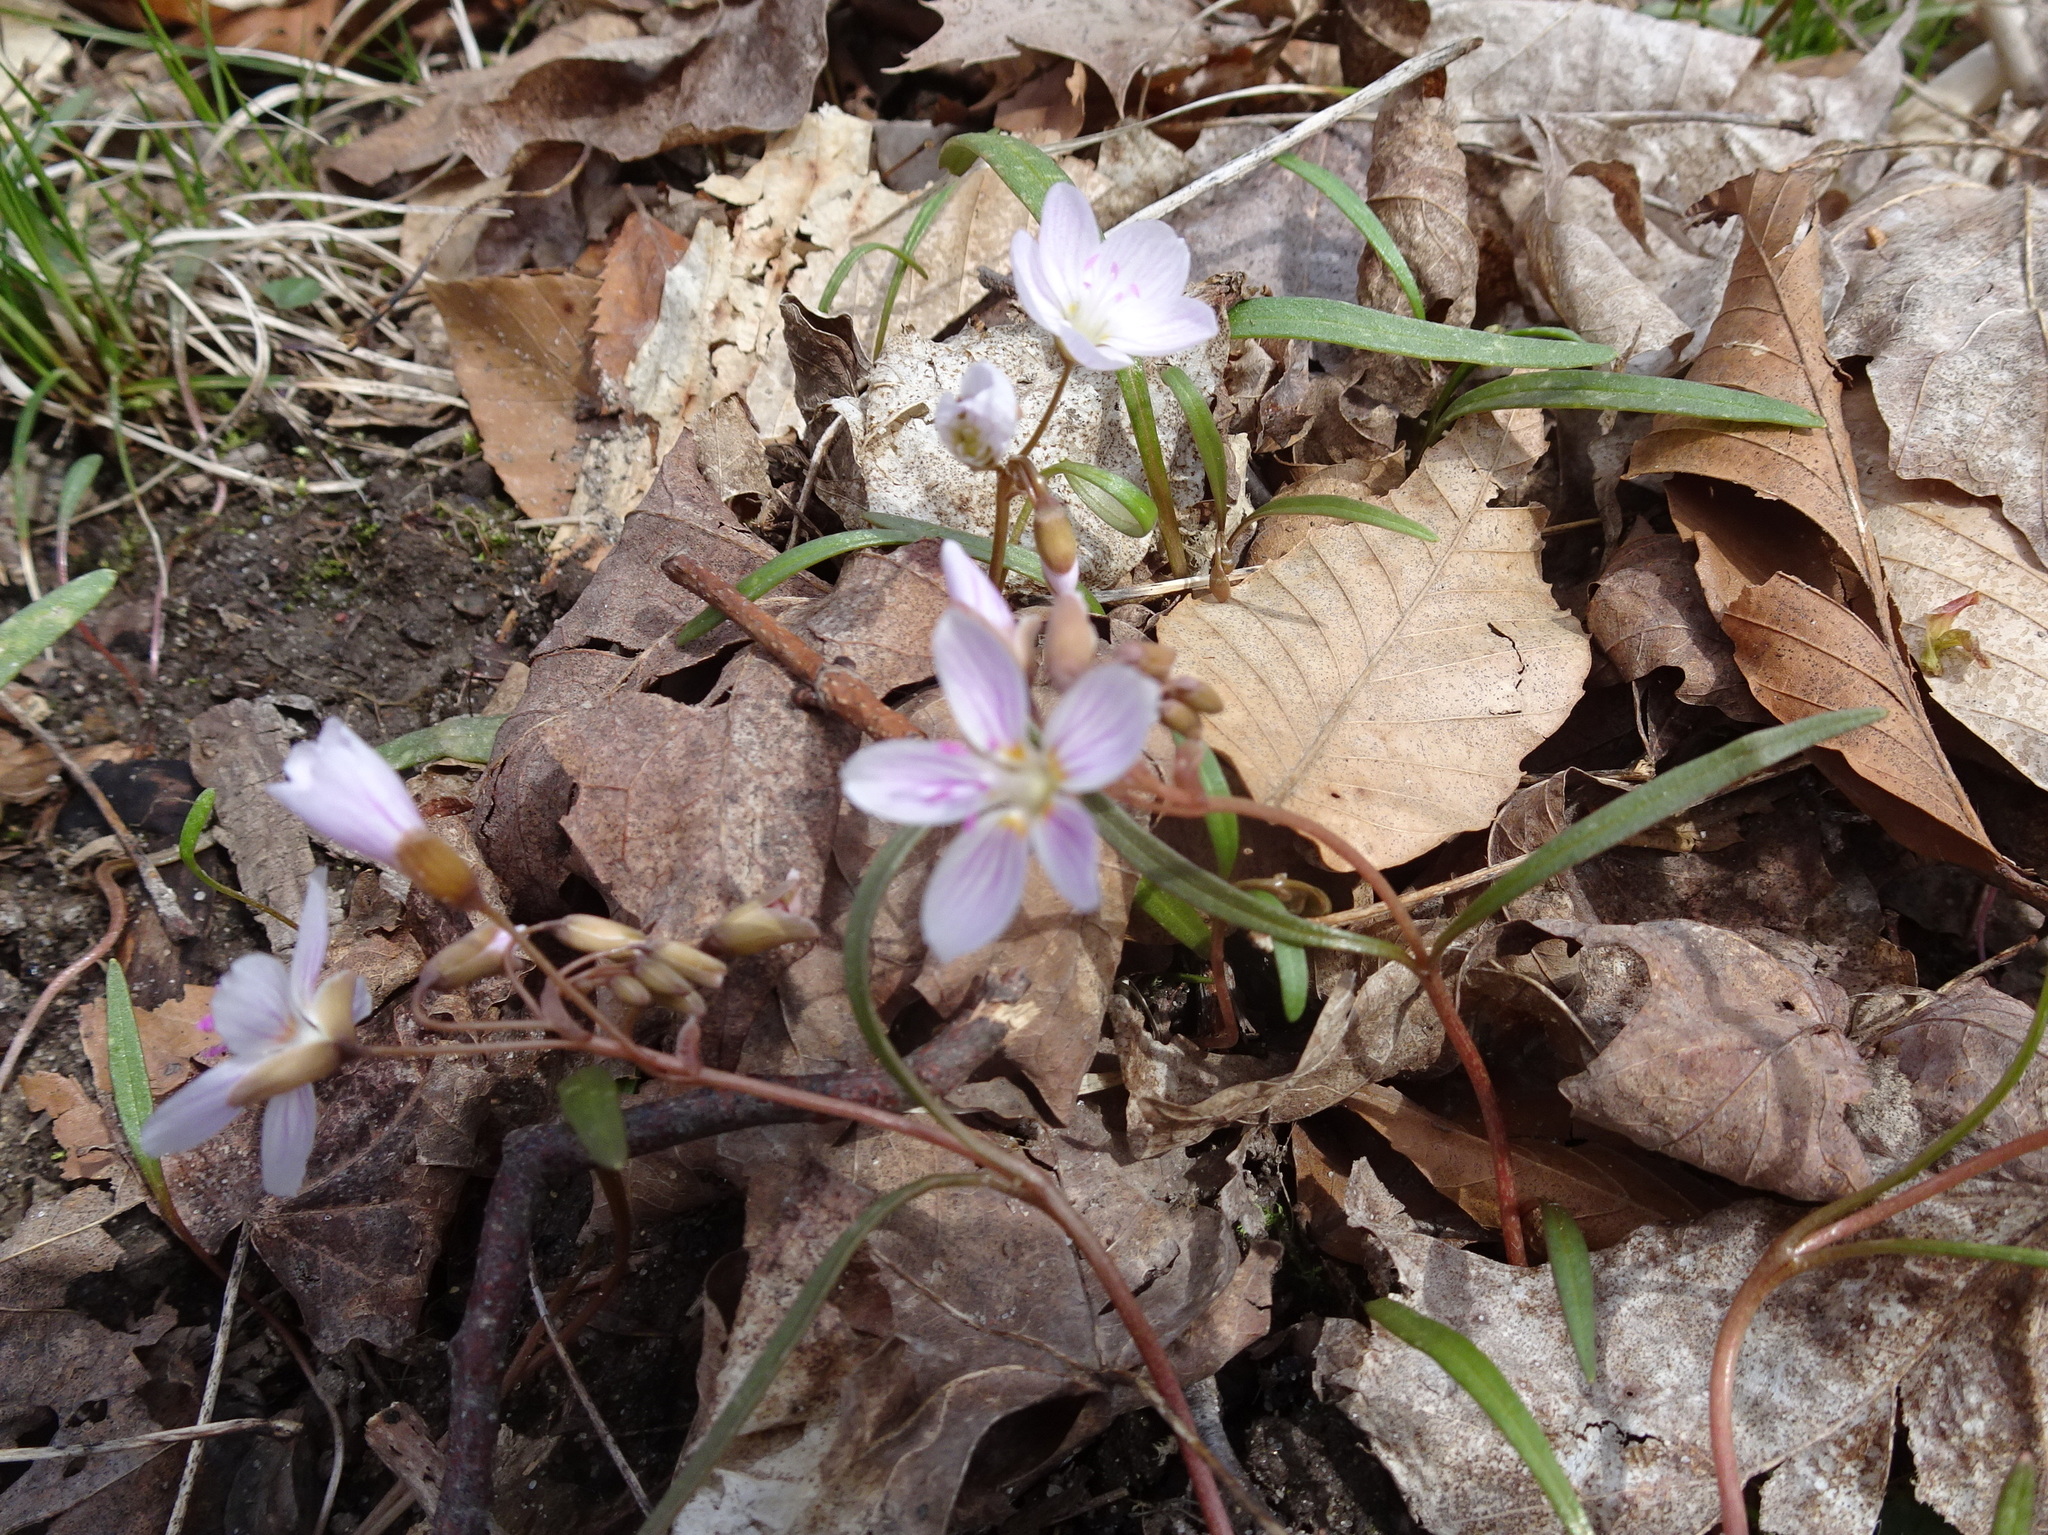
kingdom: Plantae
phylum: Tracheophyta
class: Magnoliopsida
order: Caryophyllales
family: Montiaceae
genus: Claytonia
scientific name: Claytonia virginica
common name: Virginia springbeauty
